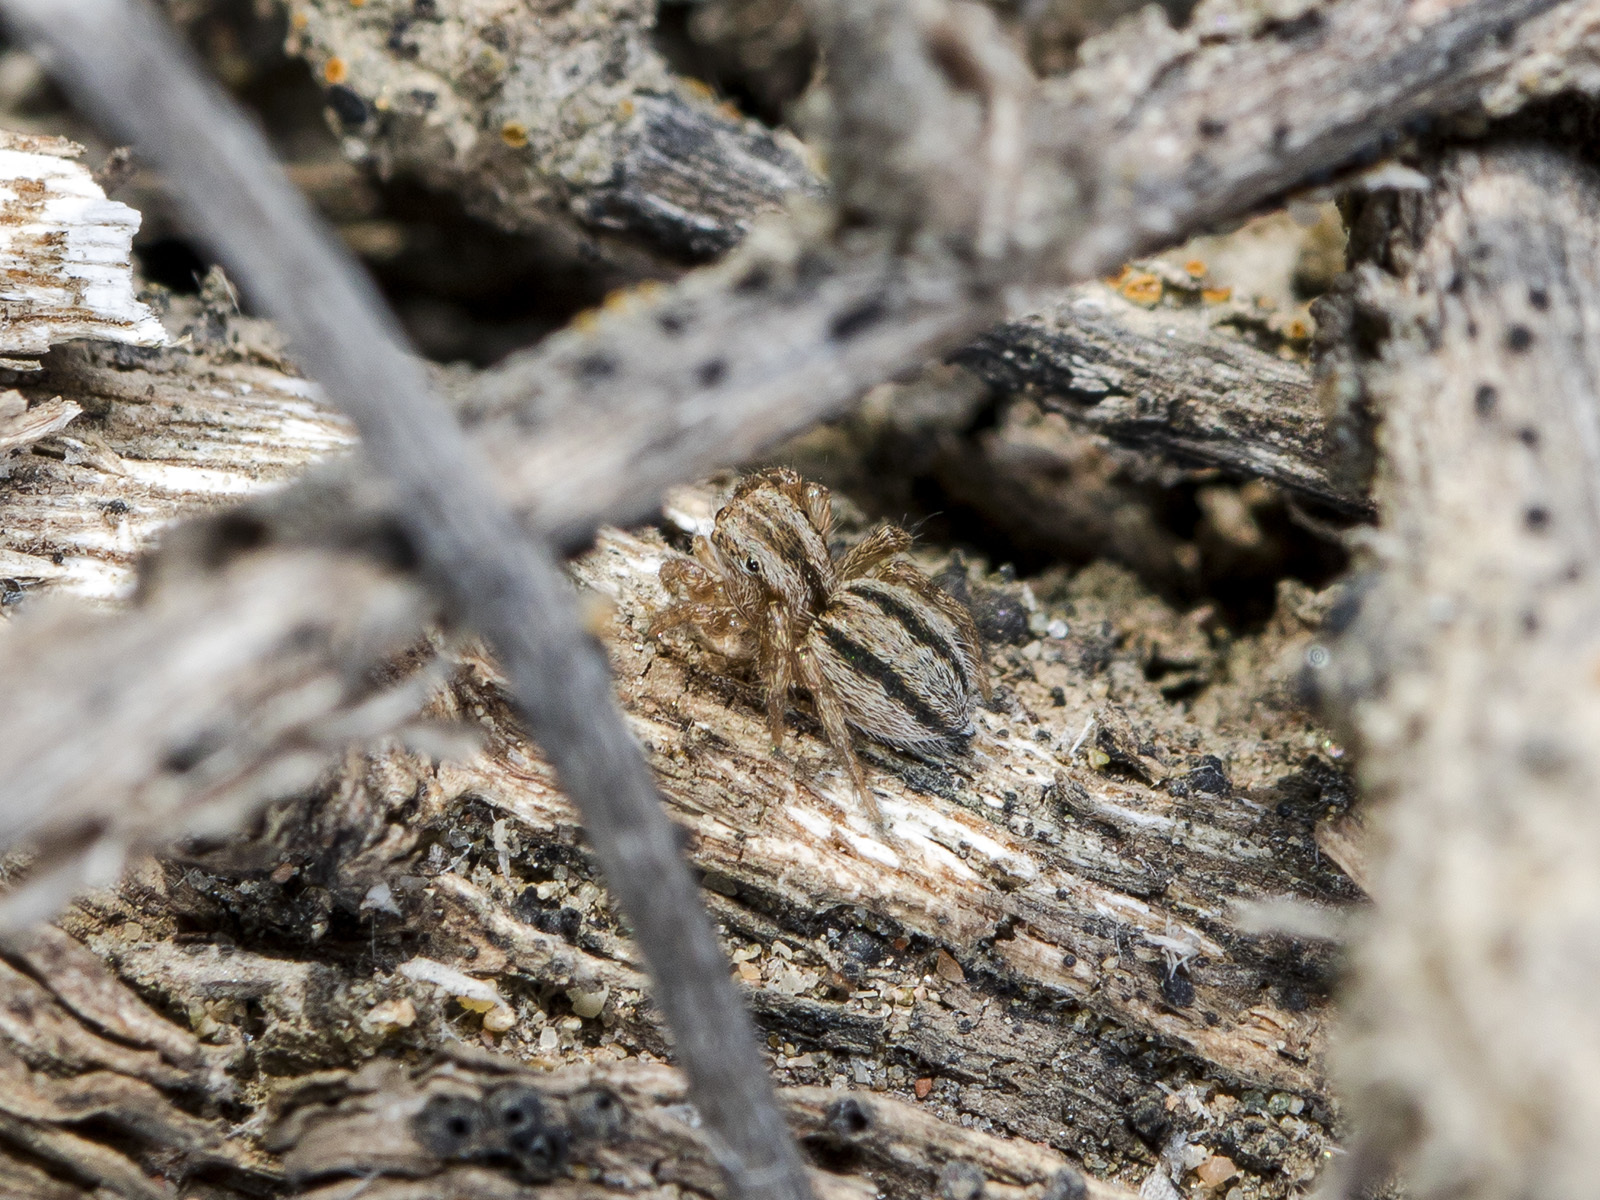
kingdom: Animalia
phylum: Arthropoda
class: Arachnida
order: Araneae
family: Salticidae
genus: Aelurillus
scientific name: Aelurillus m-nigrum
